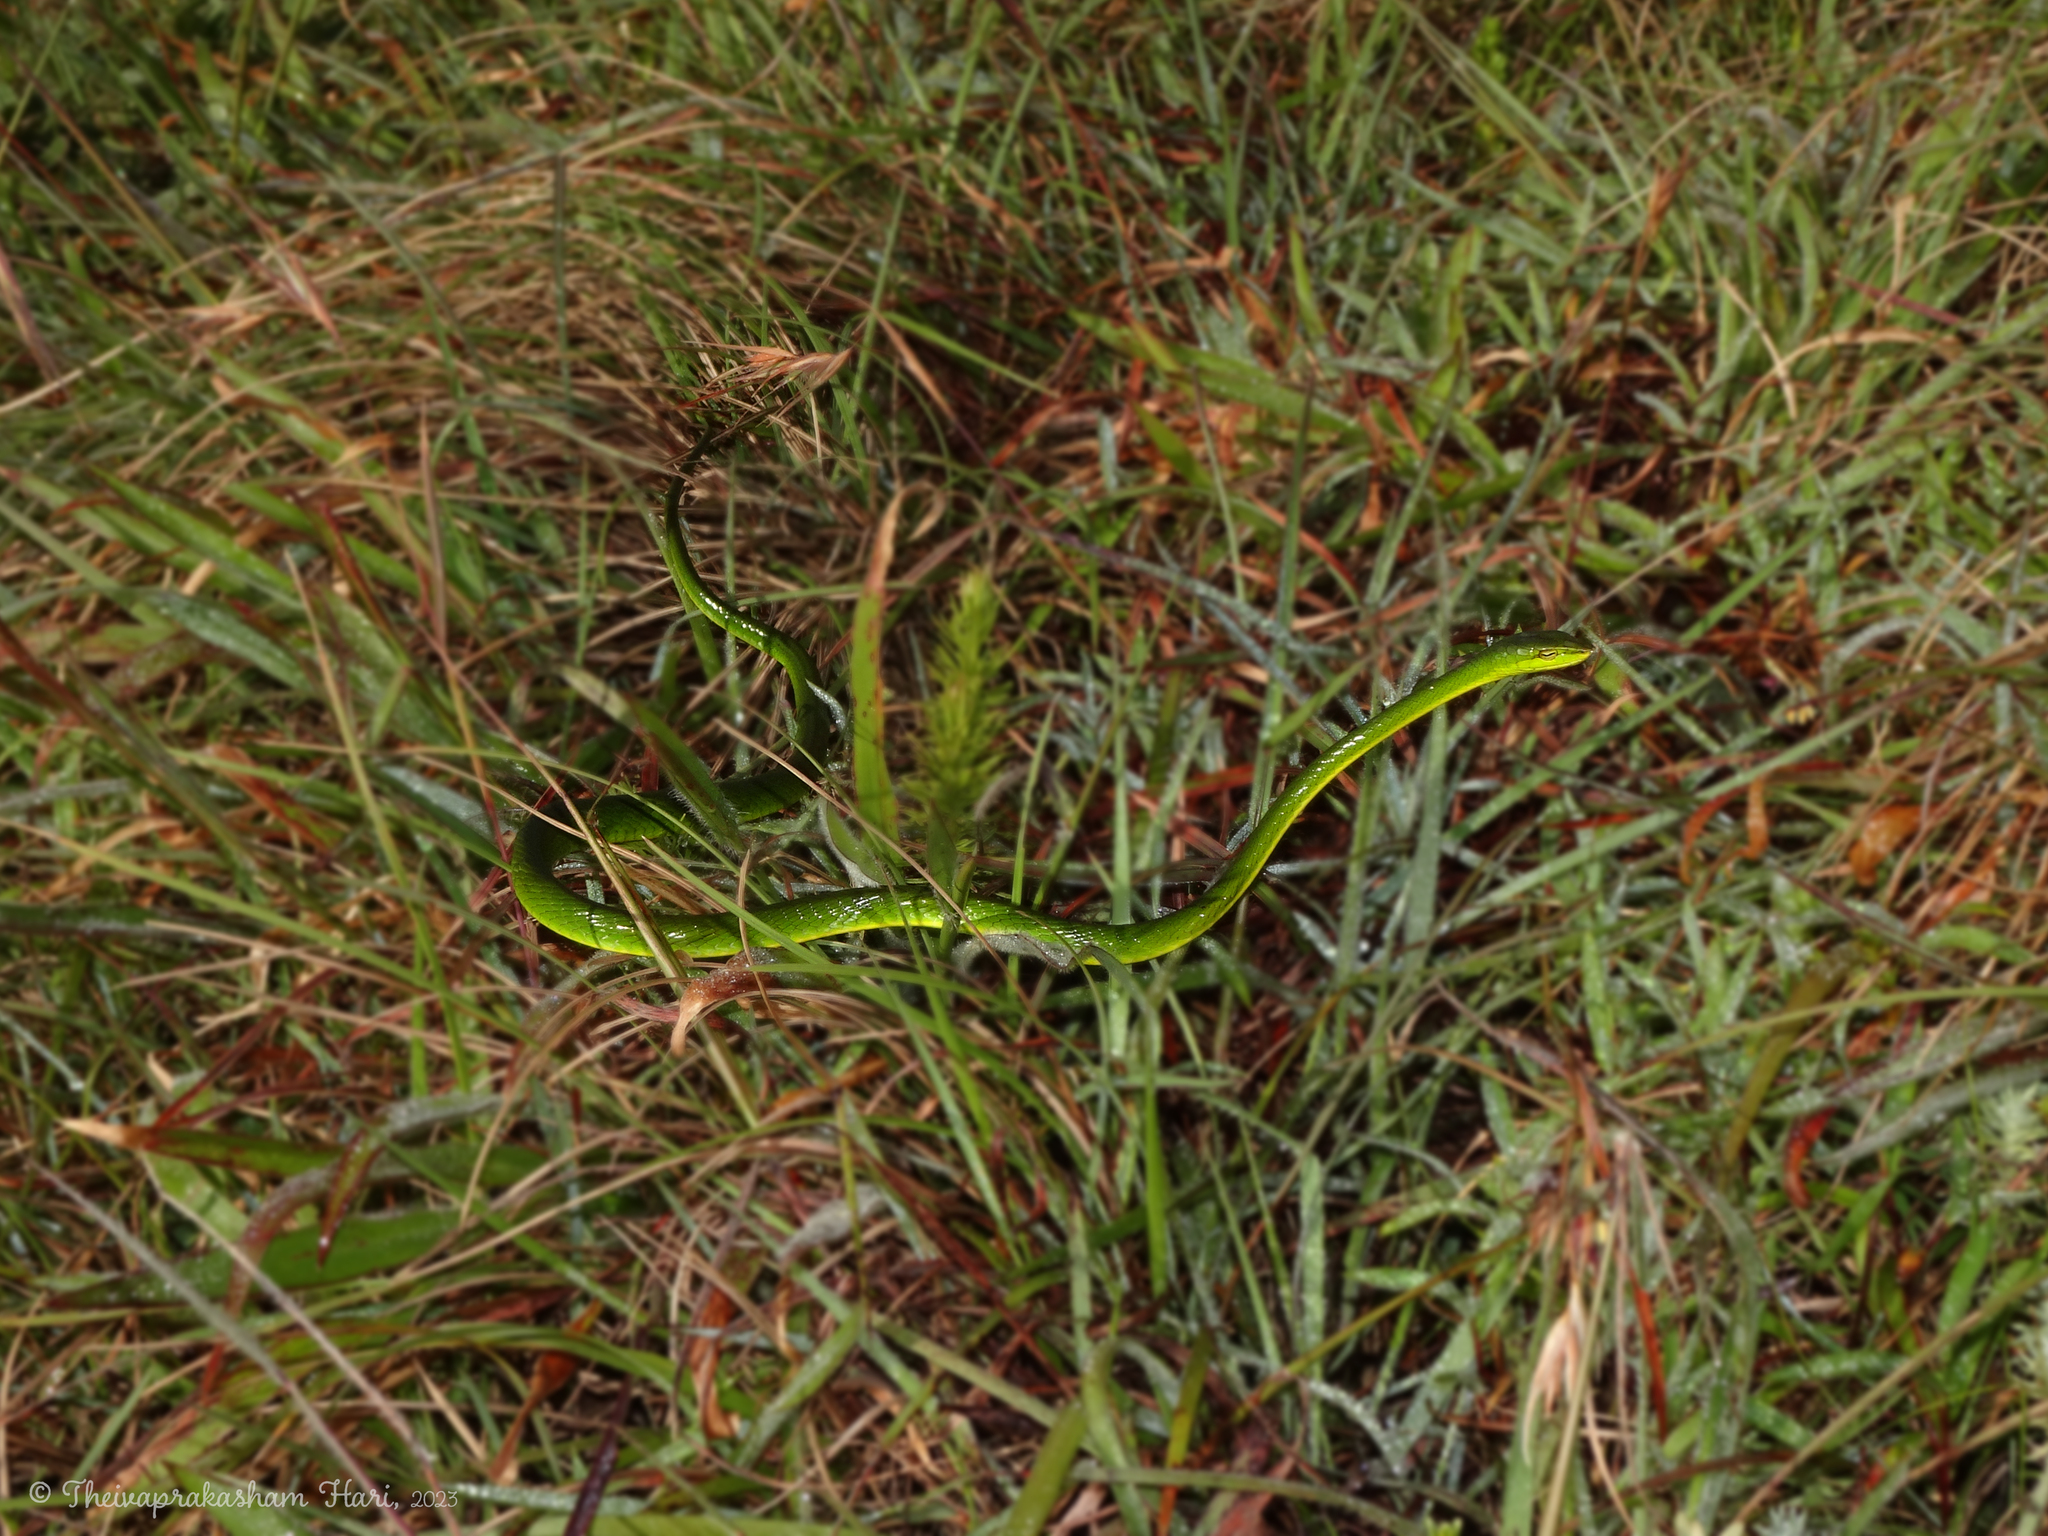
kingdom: Animalia
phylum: Chordata
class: Squamata
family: Colubridae
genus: Ahaetulla
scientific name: Ahaetulla dispar
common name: Günther's vine snake
